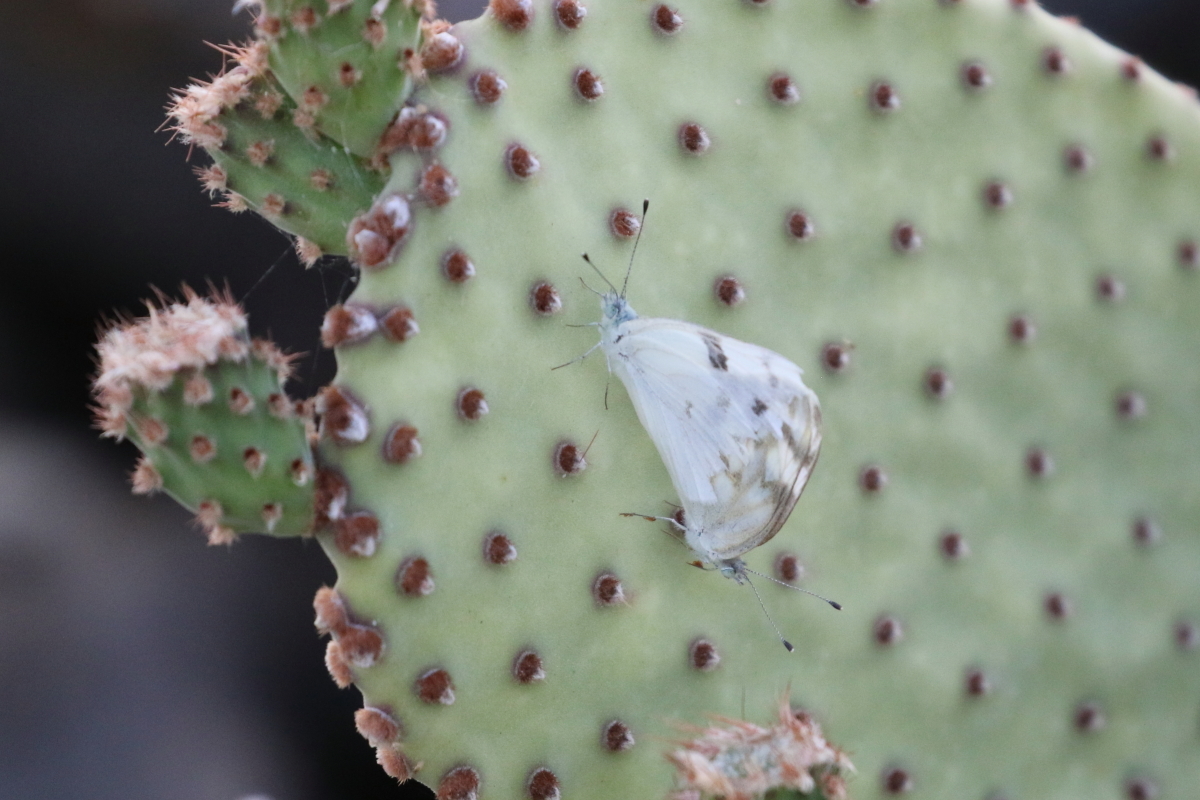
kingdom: Animalia
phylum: Arthropoda
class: Insecta
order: Lepidoptera
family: Pieridae
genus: Pontia
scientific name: Pontia protodice
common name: Checkered white
